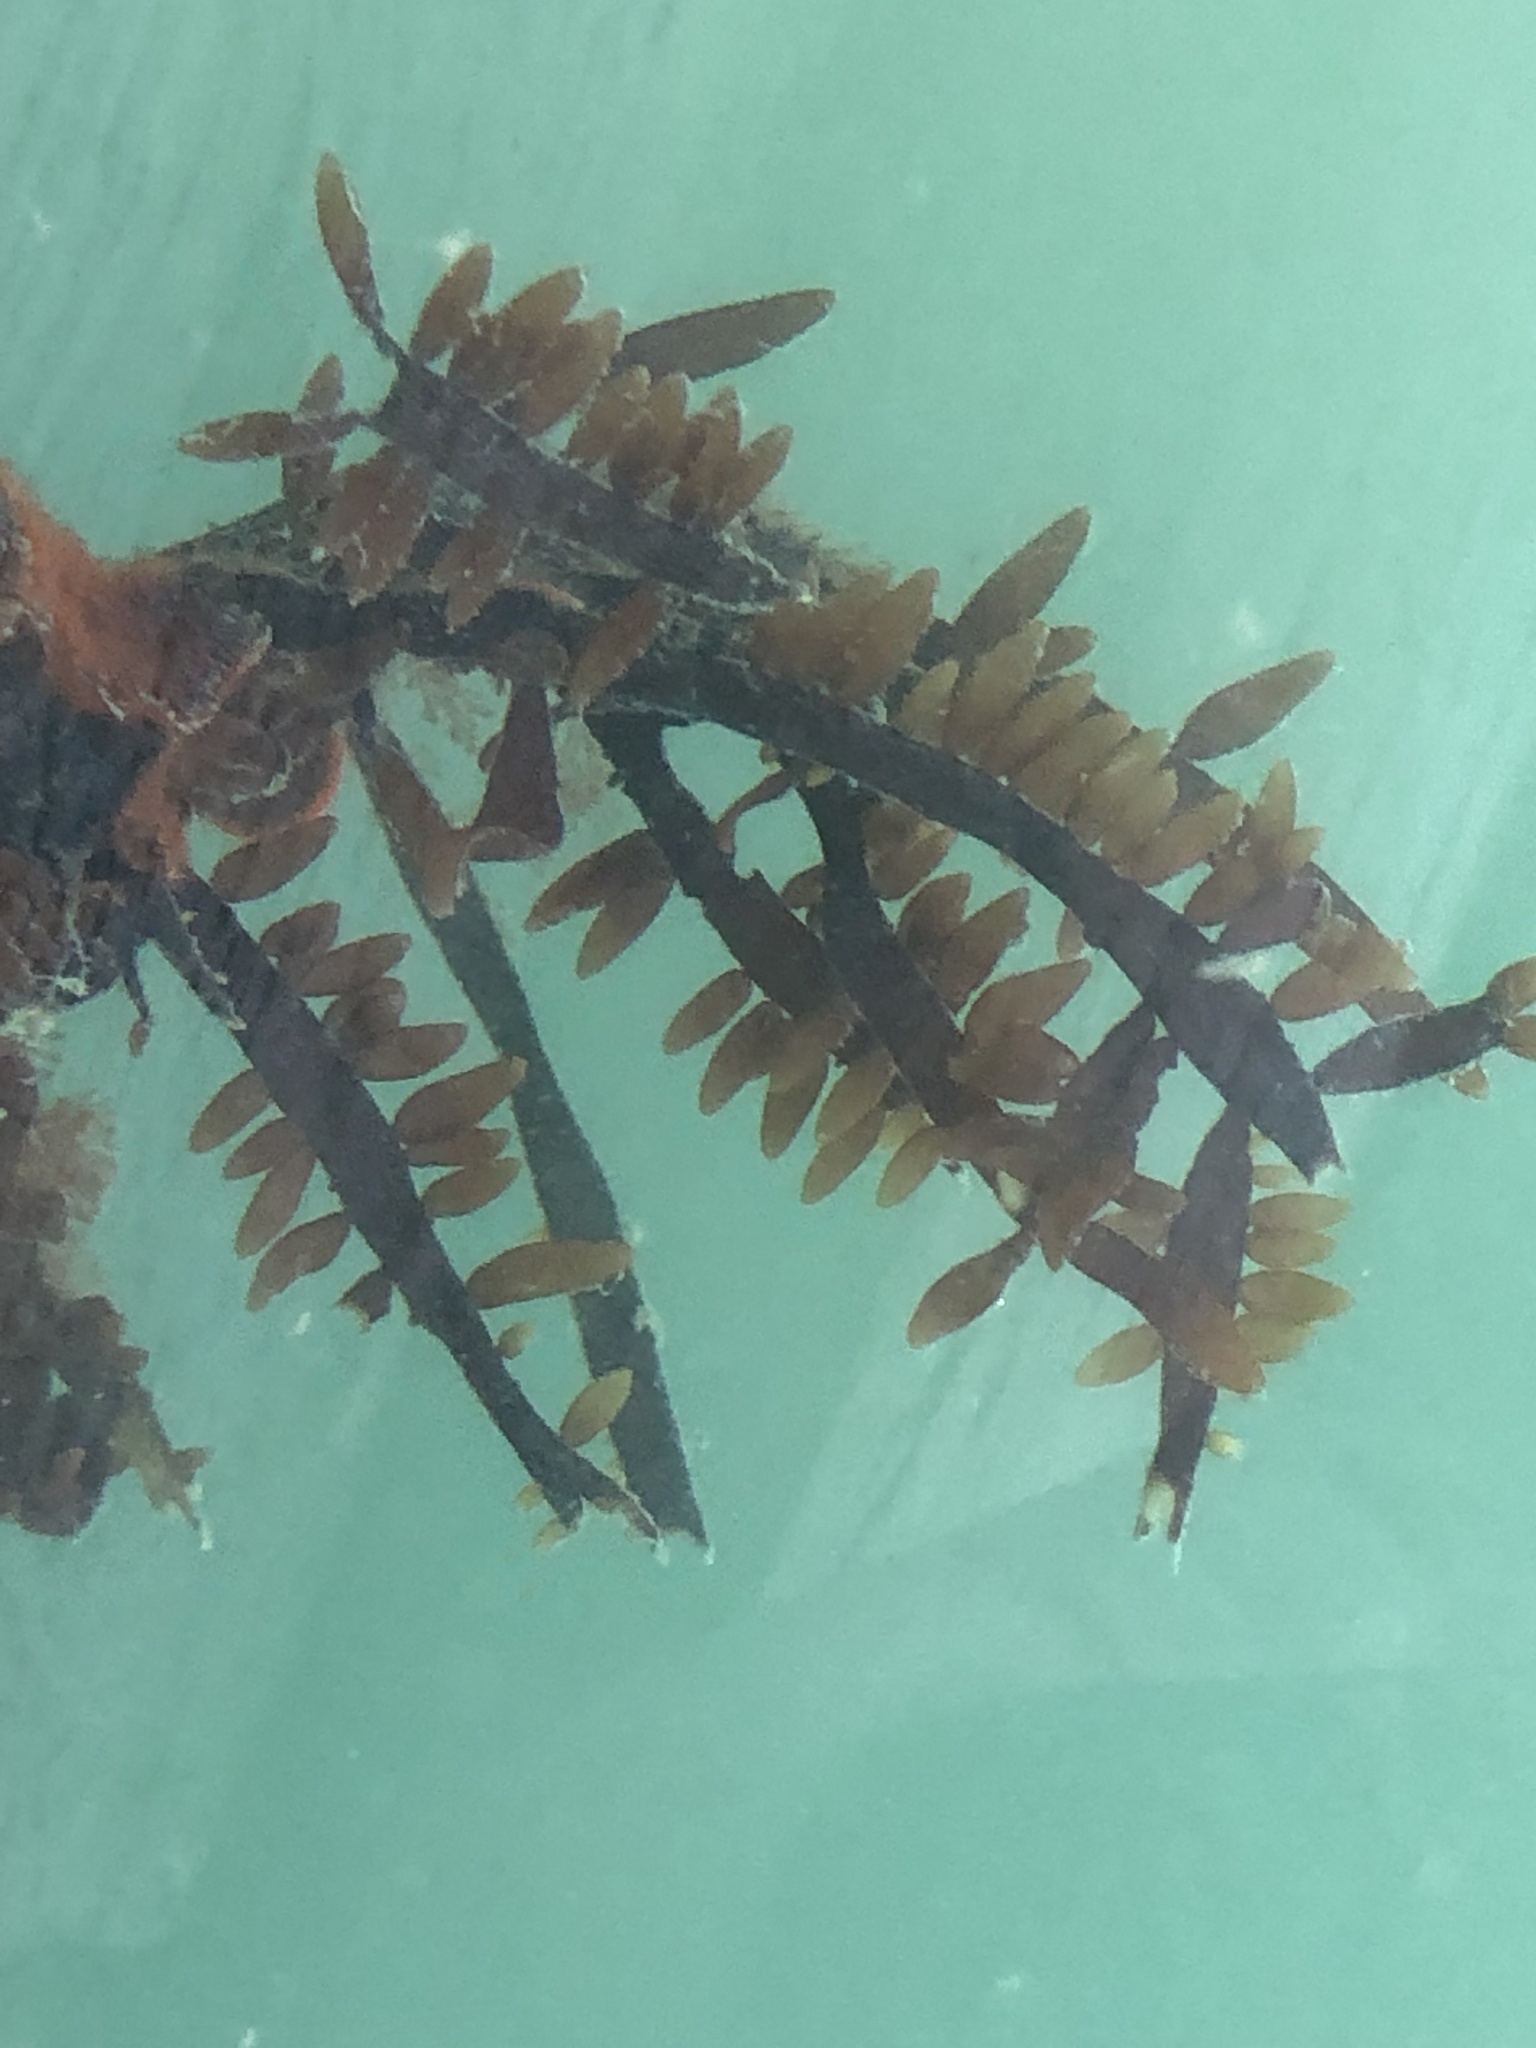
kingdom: Plantae
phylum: Rhodophyta
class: Florideophyceae
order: Halymeniales
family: Halymeniaceae
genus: Grateloupia
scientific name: Grateloupia Prionitis lanceolata
